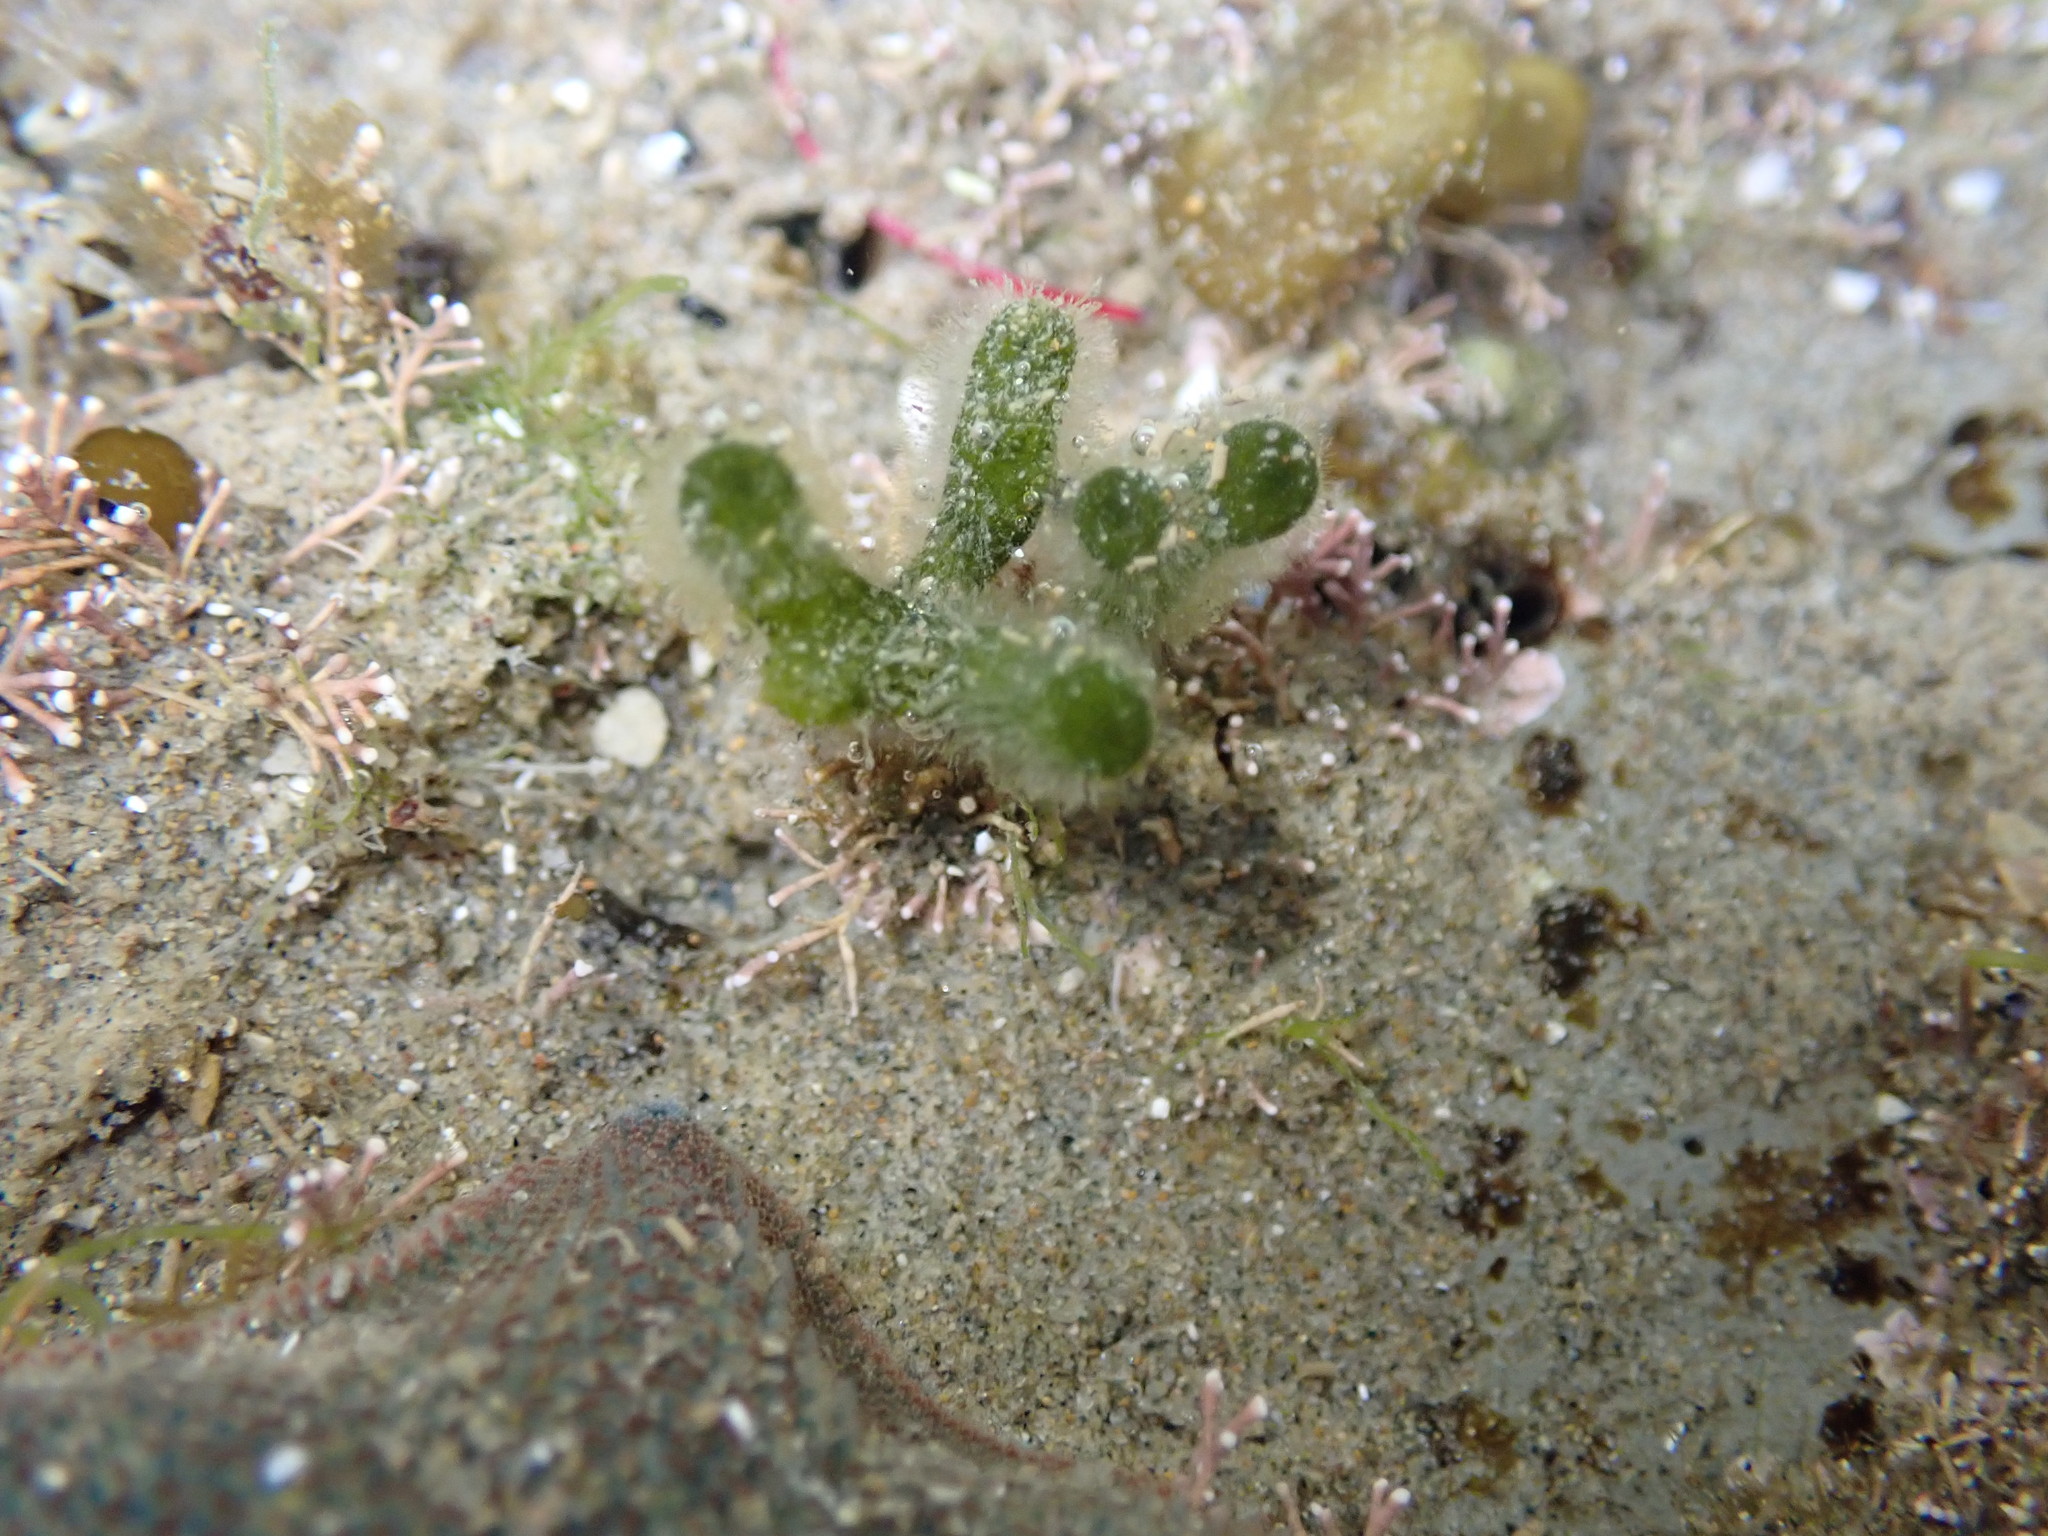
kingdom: Plantae
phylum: Chlorophyta
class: Ulvophyceae
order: Bryopsidales
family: Codiaceae
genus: Codium
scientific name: Codium fragile
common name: Dead man's fingers
